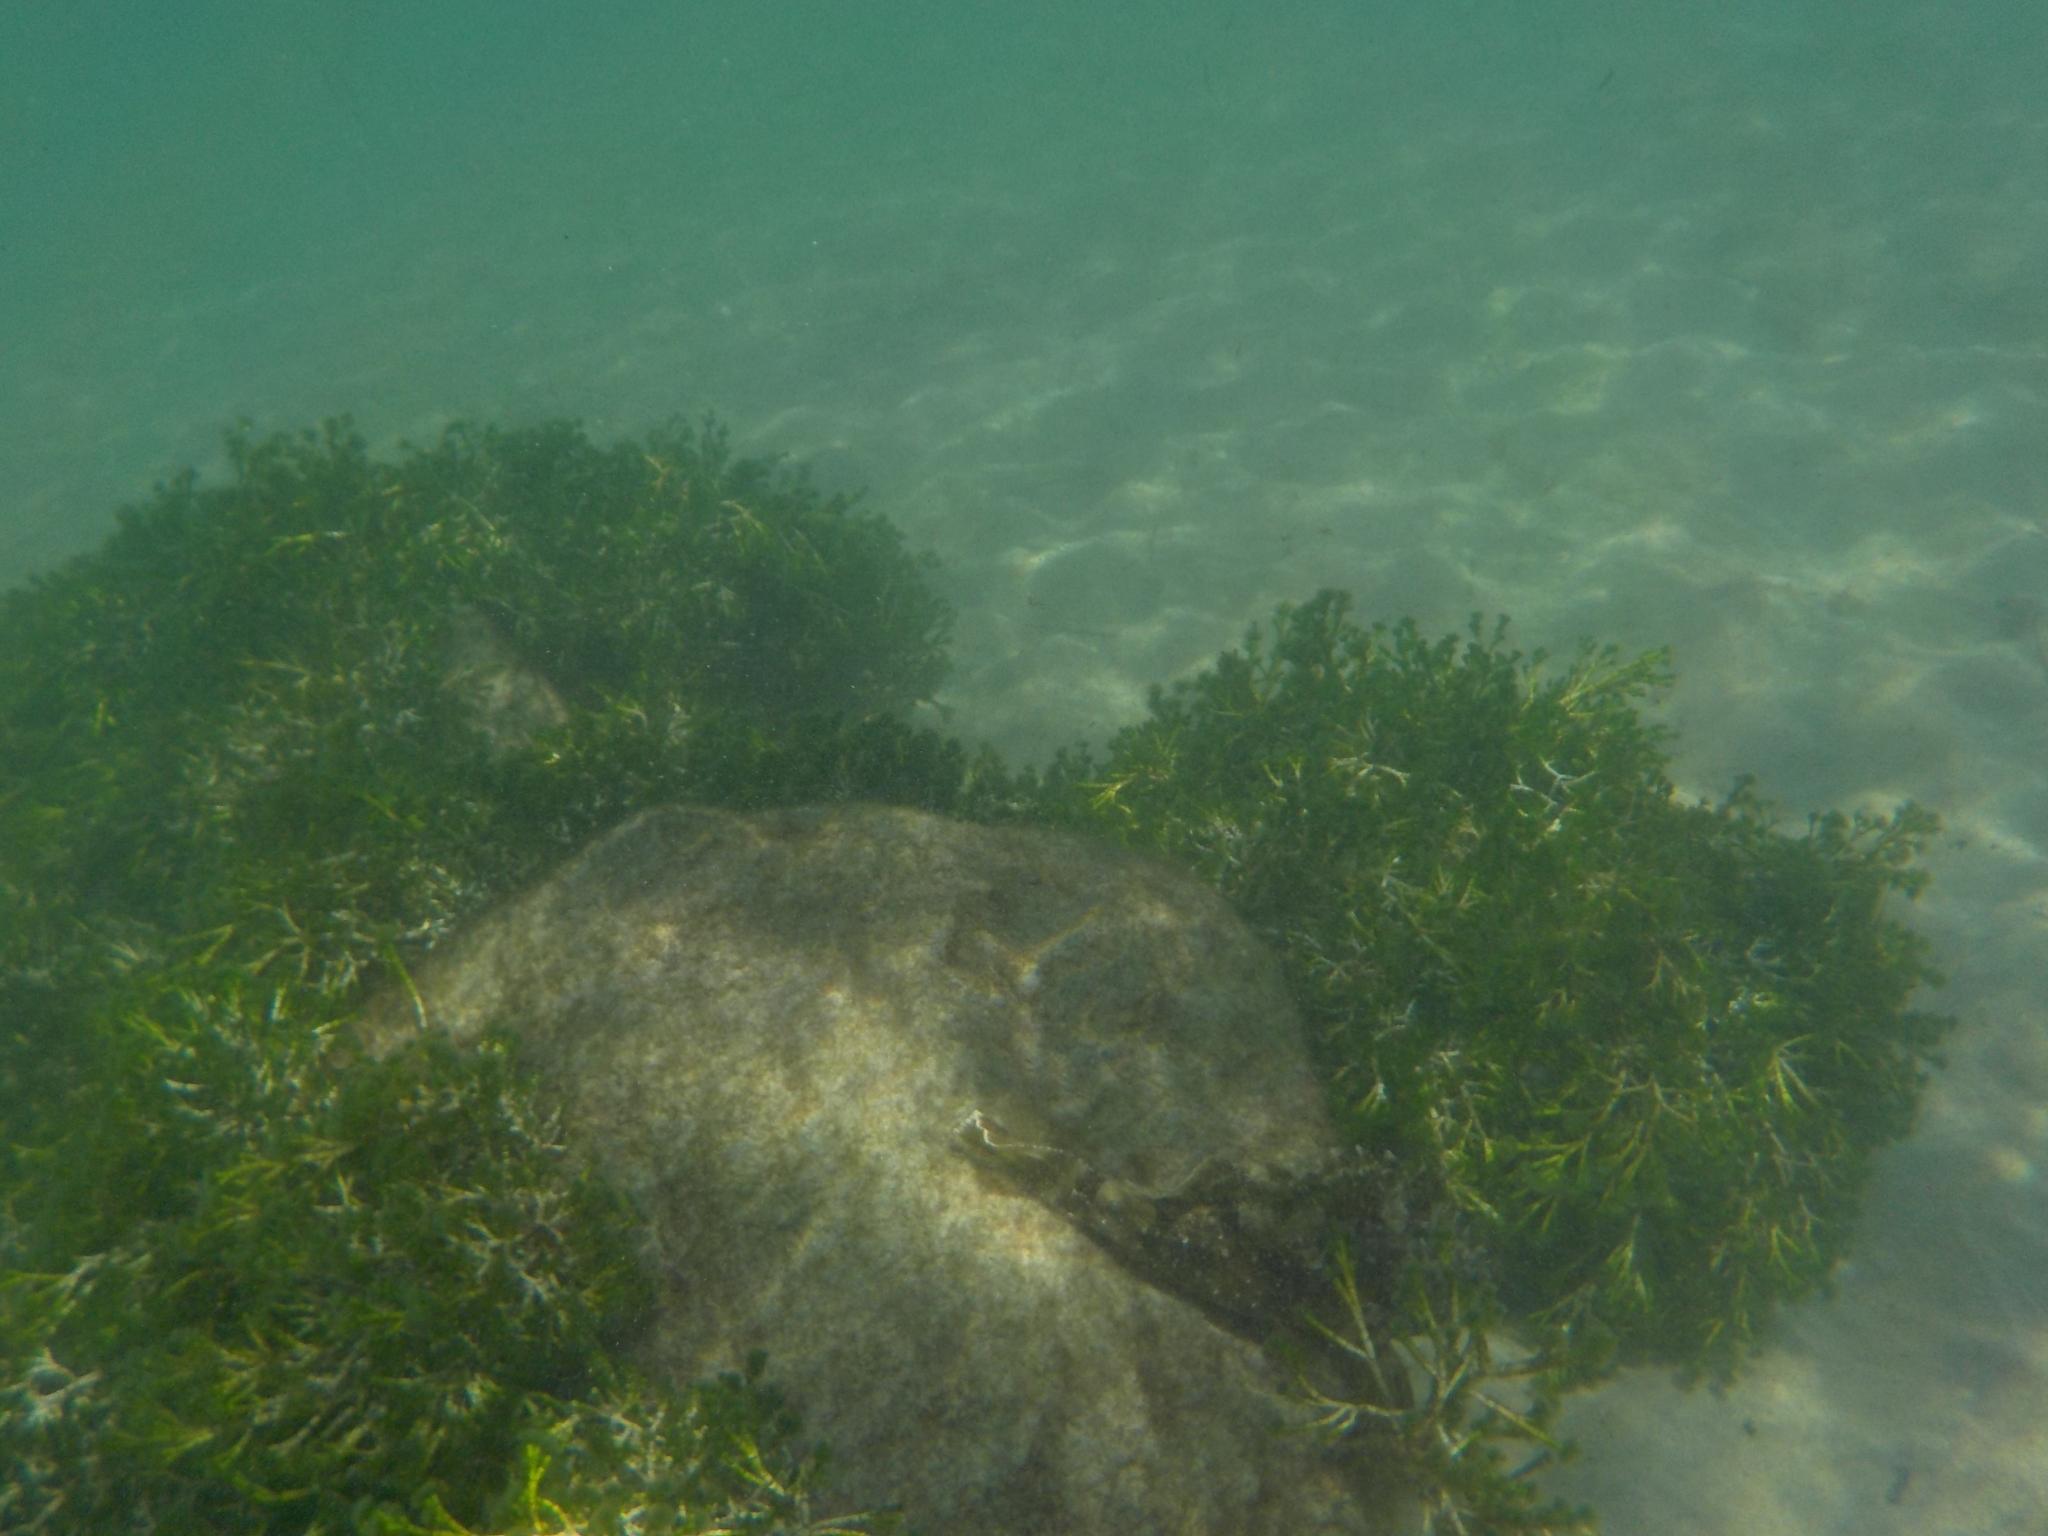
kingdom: Animalia
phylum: Chordata
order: Scorpaeniformes
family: Scorpaenidae
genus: Scorpaena
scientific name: Scorpaena porcus
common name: Black scorpionfish
